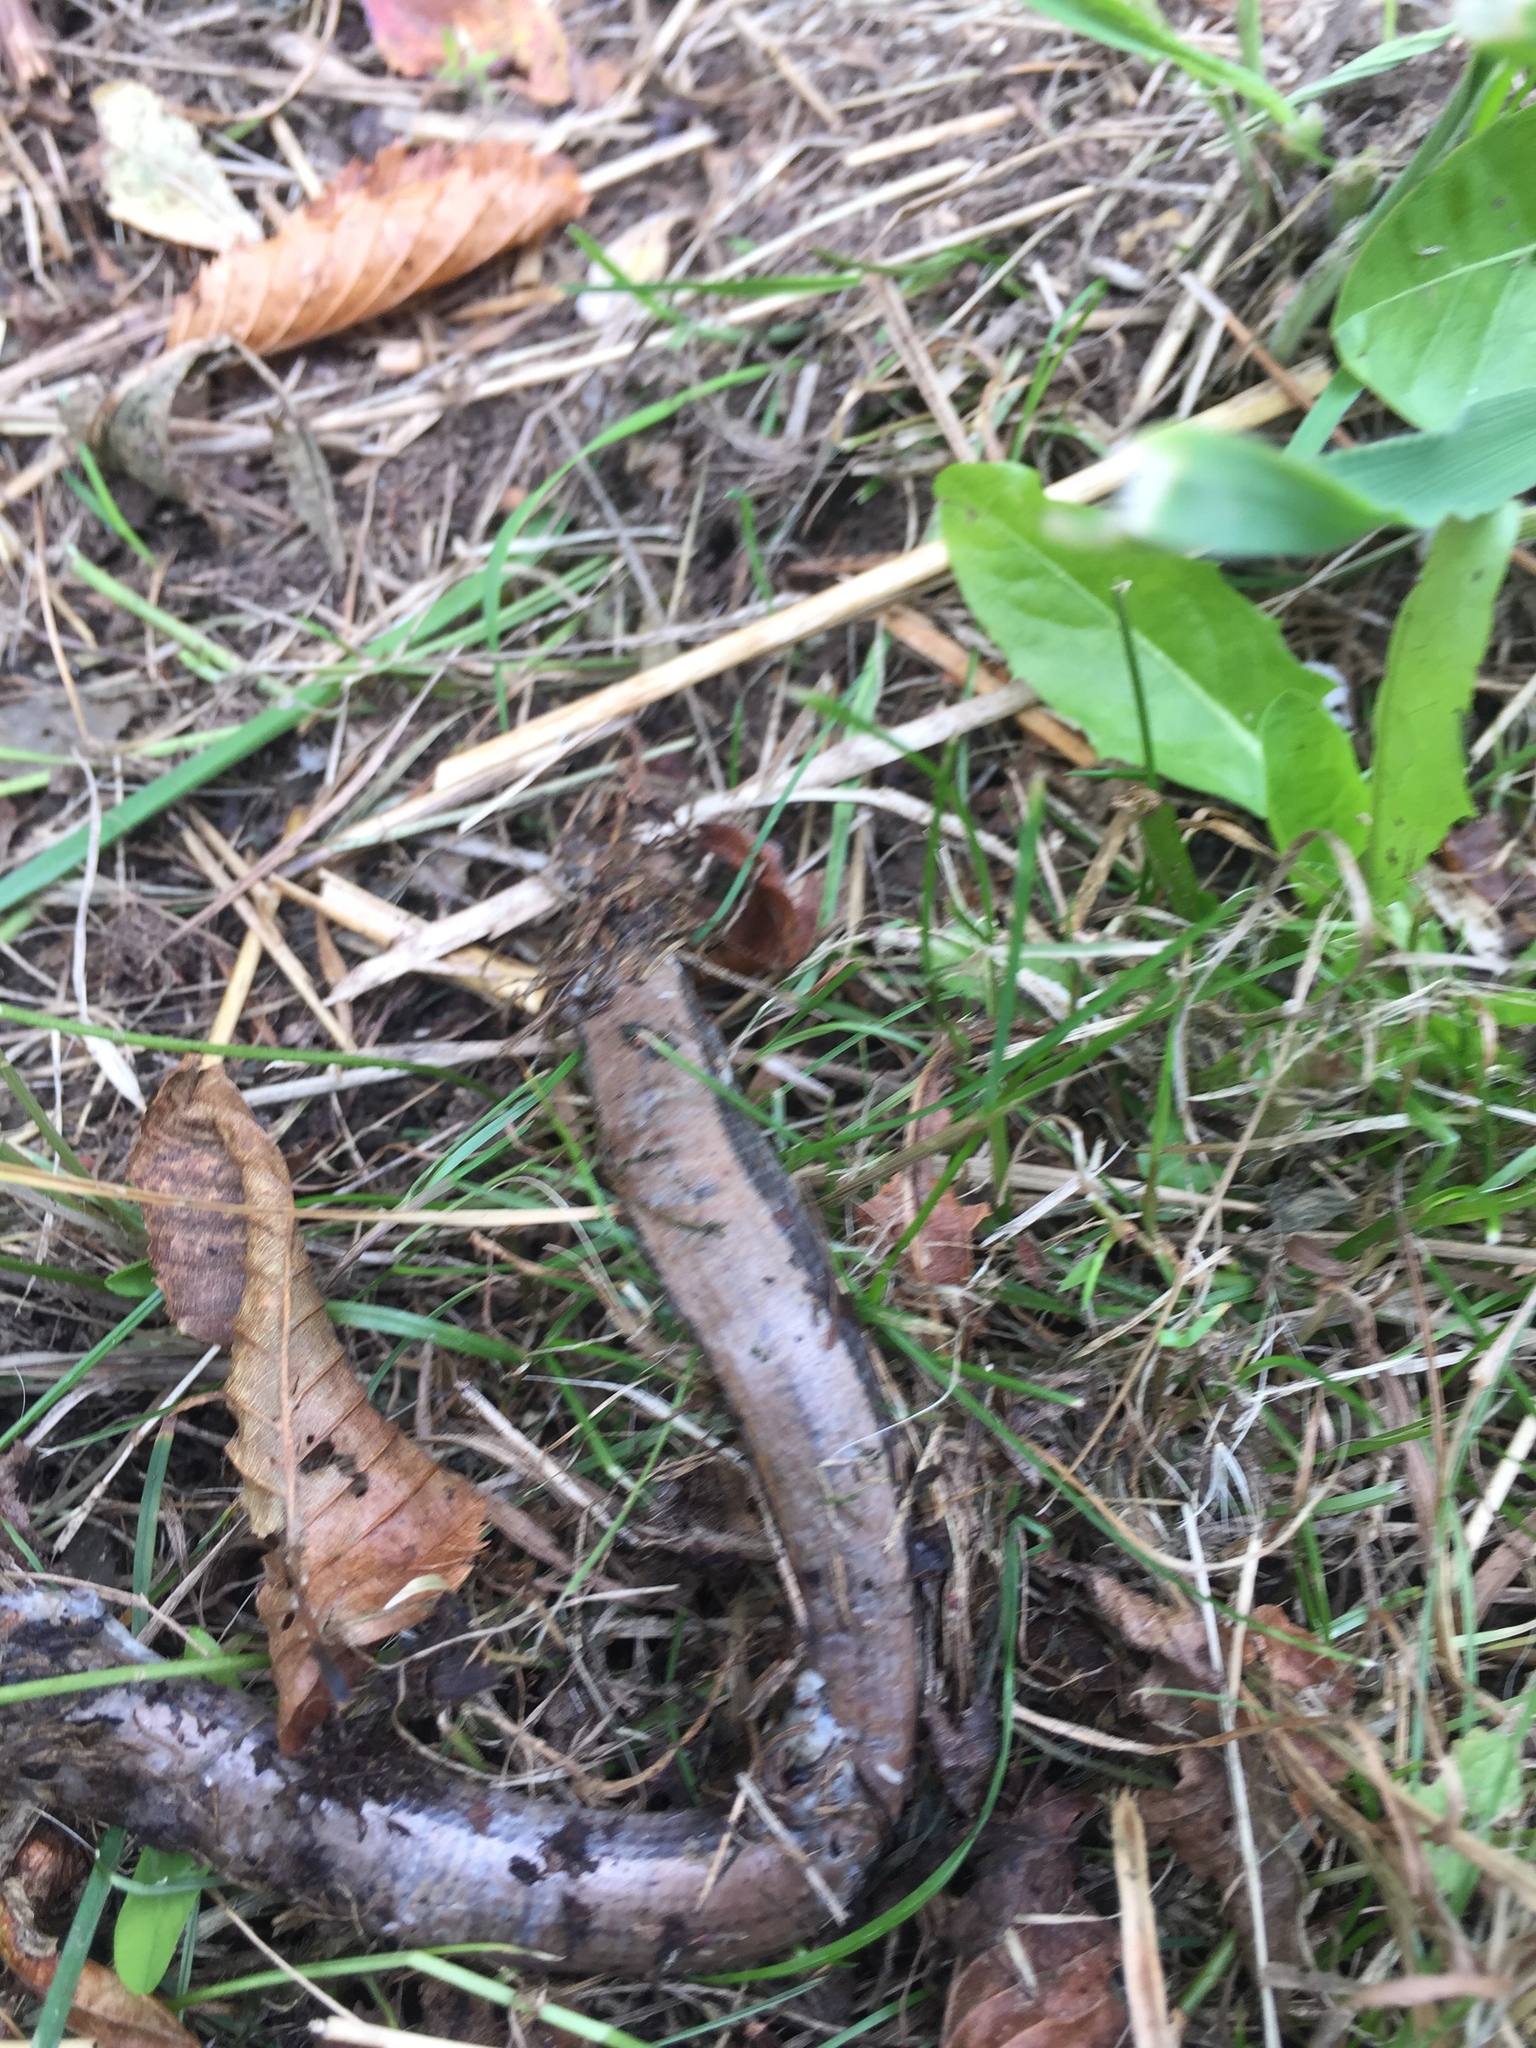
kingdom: Animalia
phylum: Chordata
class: Squamata
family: Anguidae
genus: Anguis
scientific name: Anguis fragilis
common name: Slow worm
